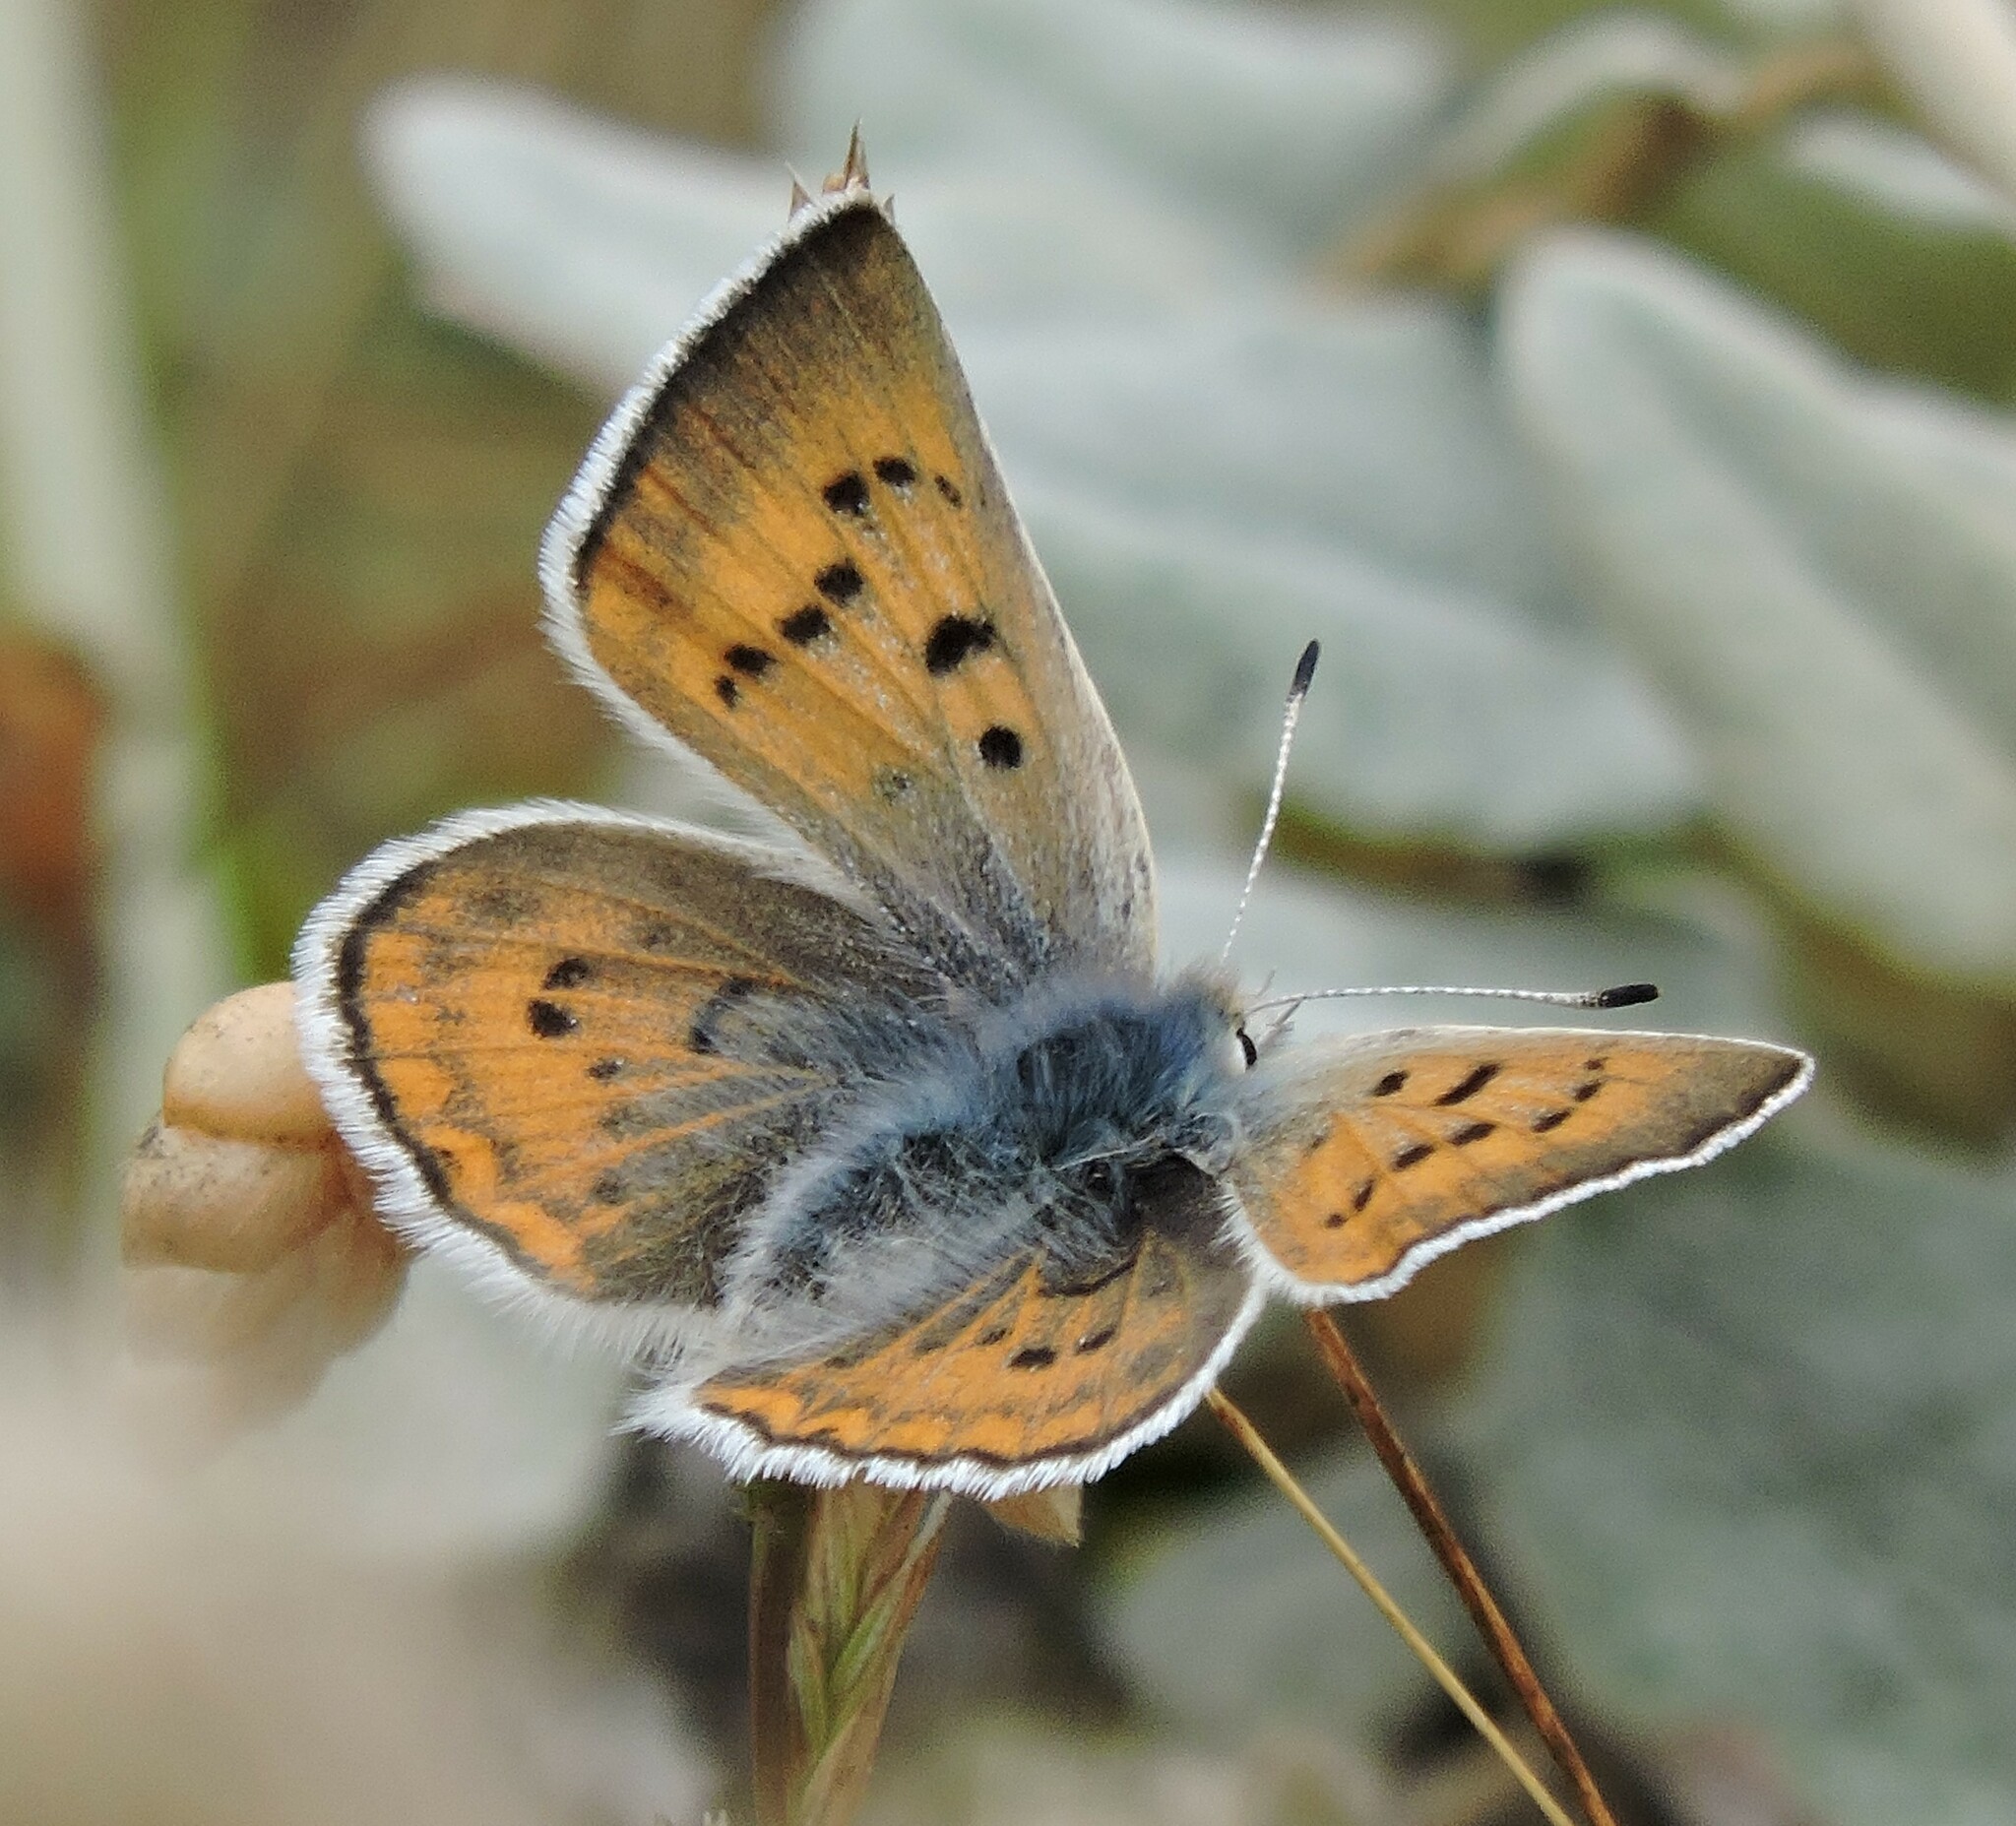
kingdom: Animalia
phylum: Arthropoda
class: Insecta
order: Lepidoptera
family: Lycaenidae
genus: Tharsalea
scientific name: Tharsalea heteronea
